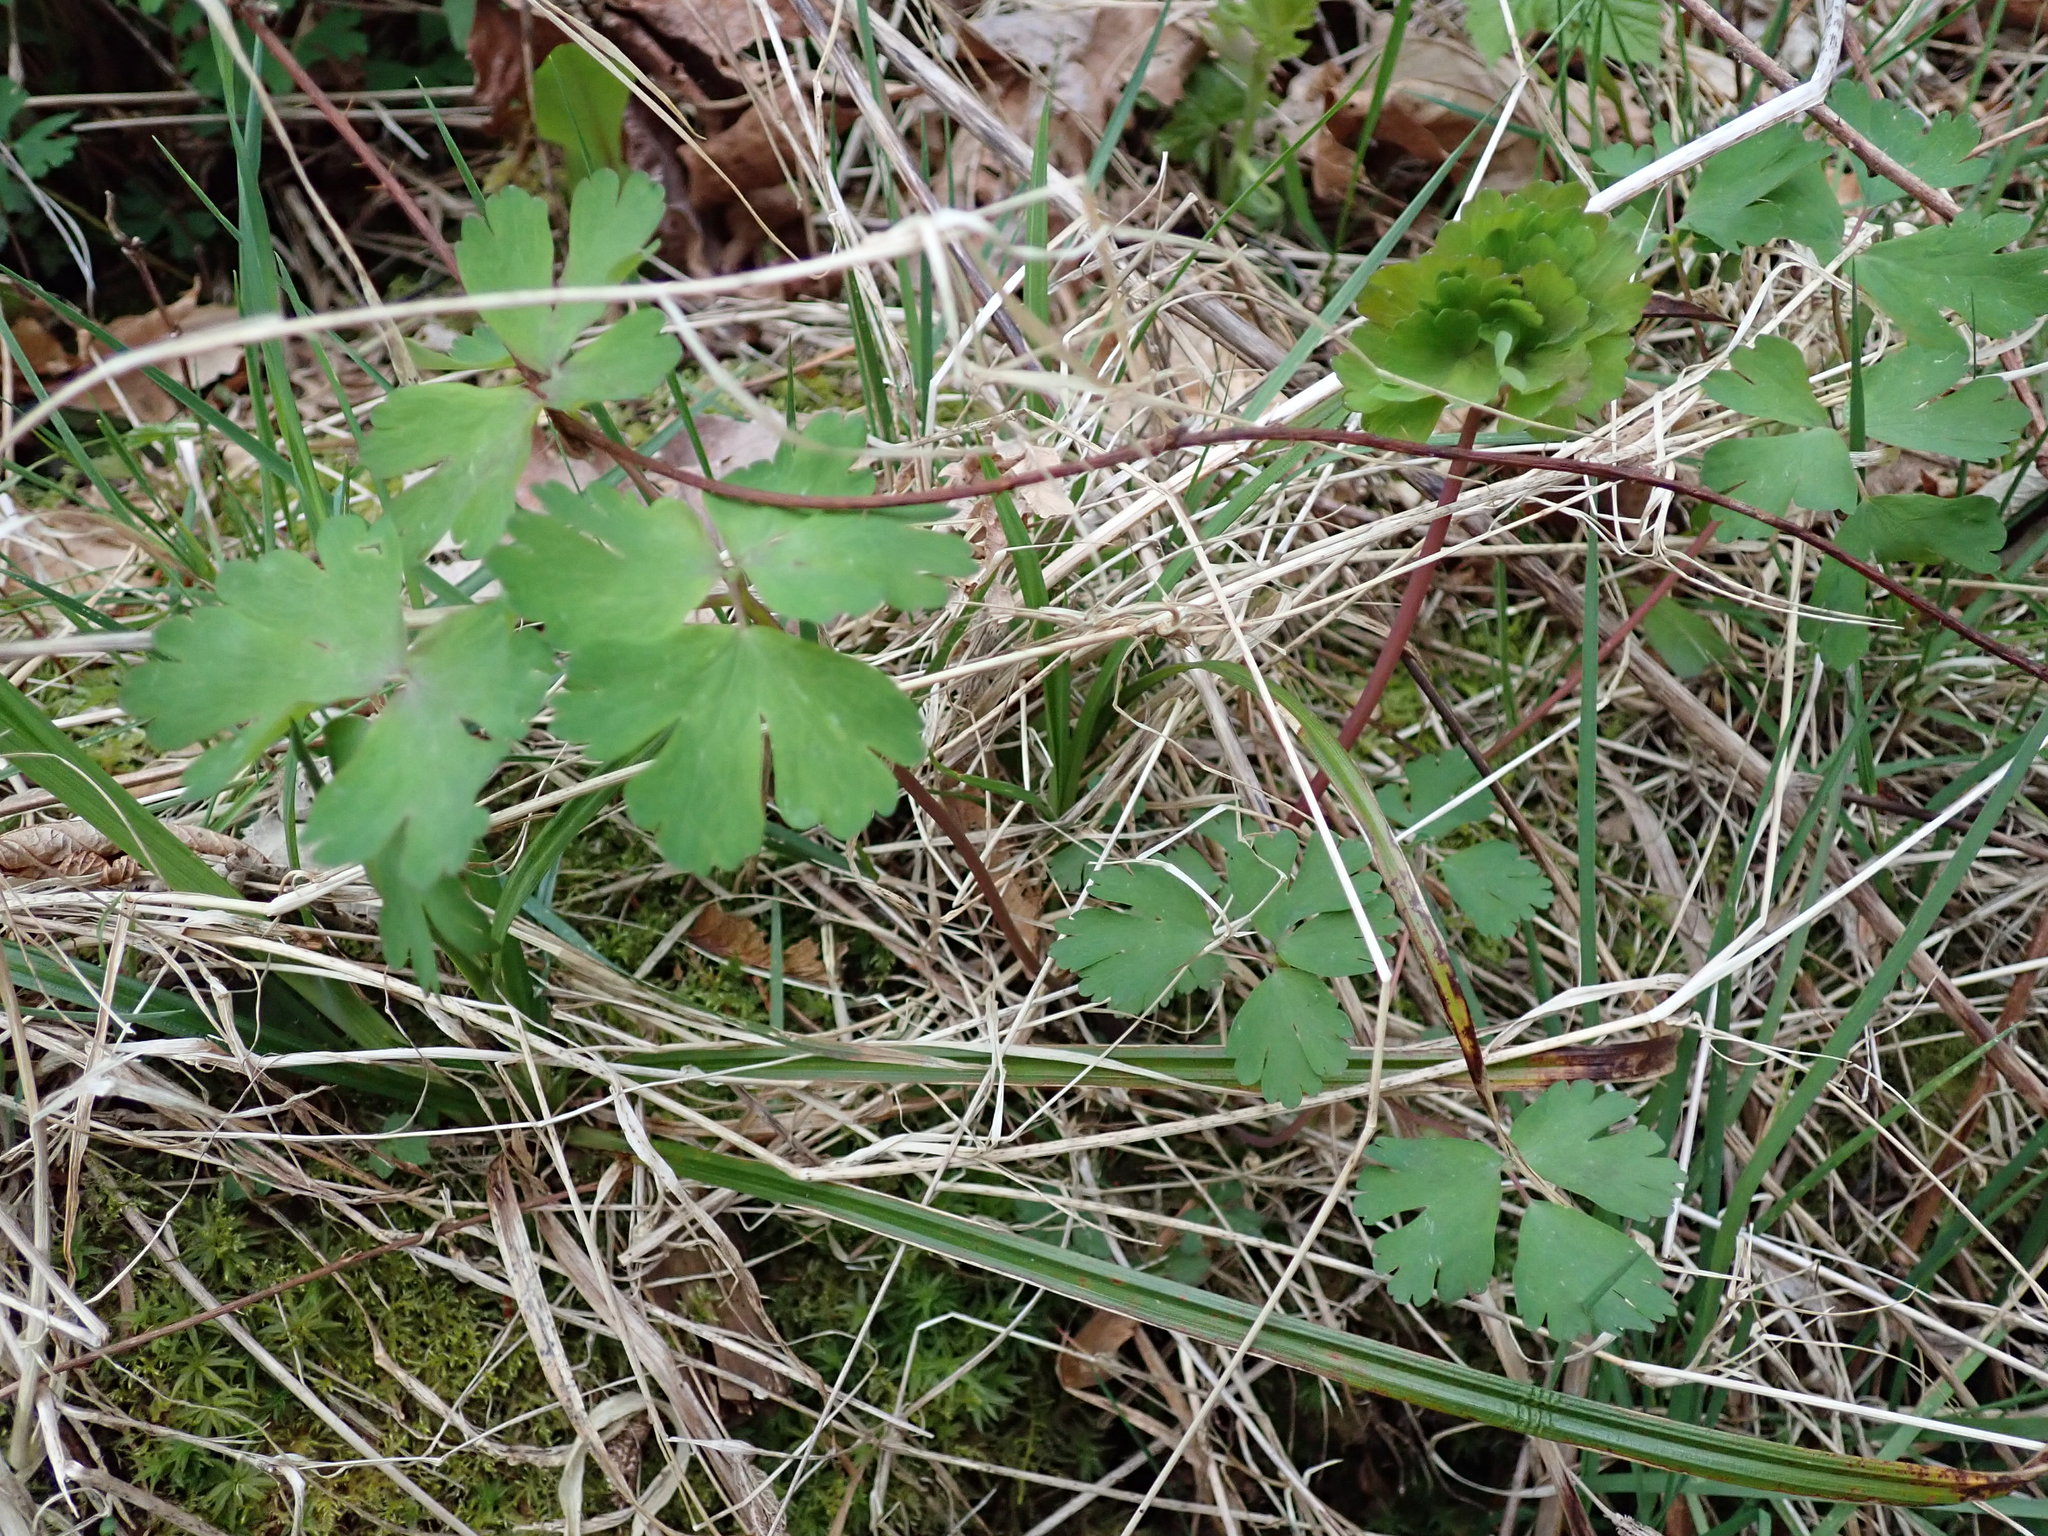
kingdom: Plantae
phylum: Tracheophyta
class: Magnoliopsida
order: Ranunculales
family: Ranunculaceae
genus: Aquilegia
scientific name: Aquilegia formosa
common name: Sitka columbine
